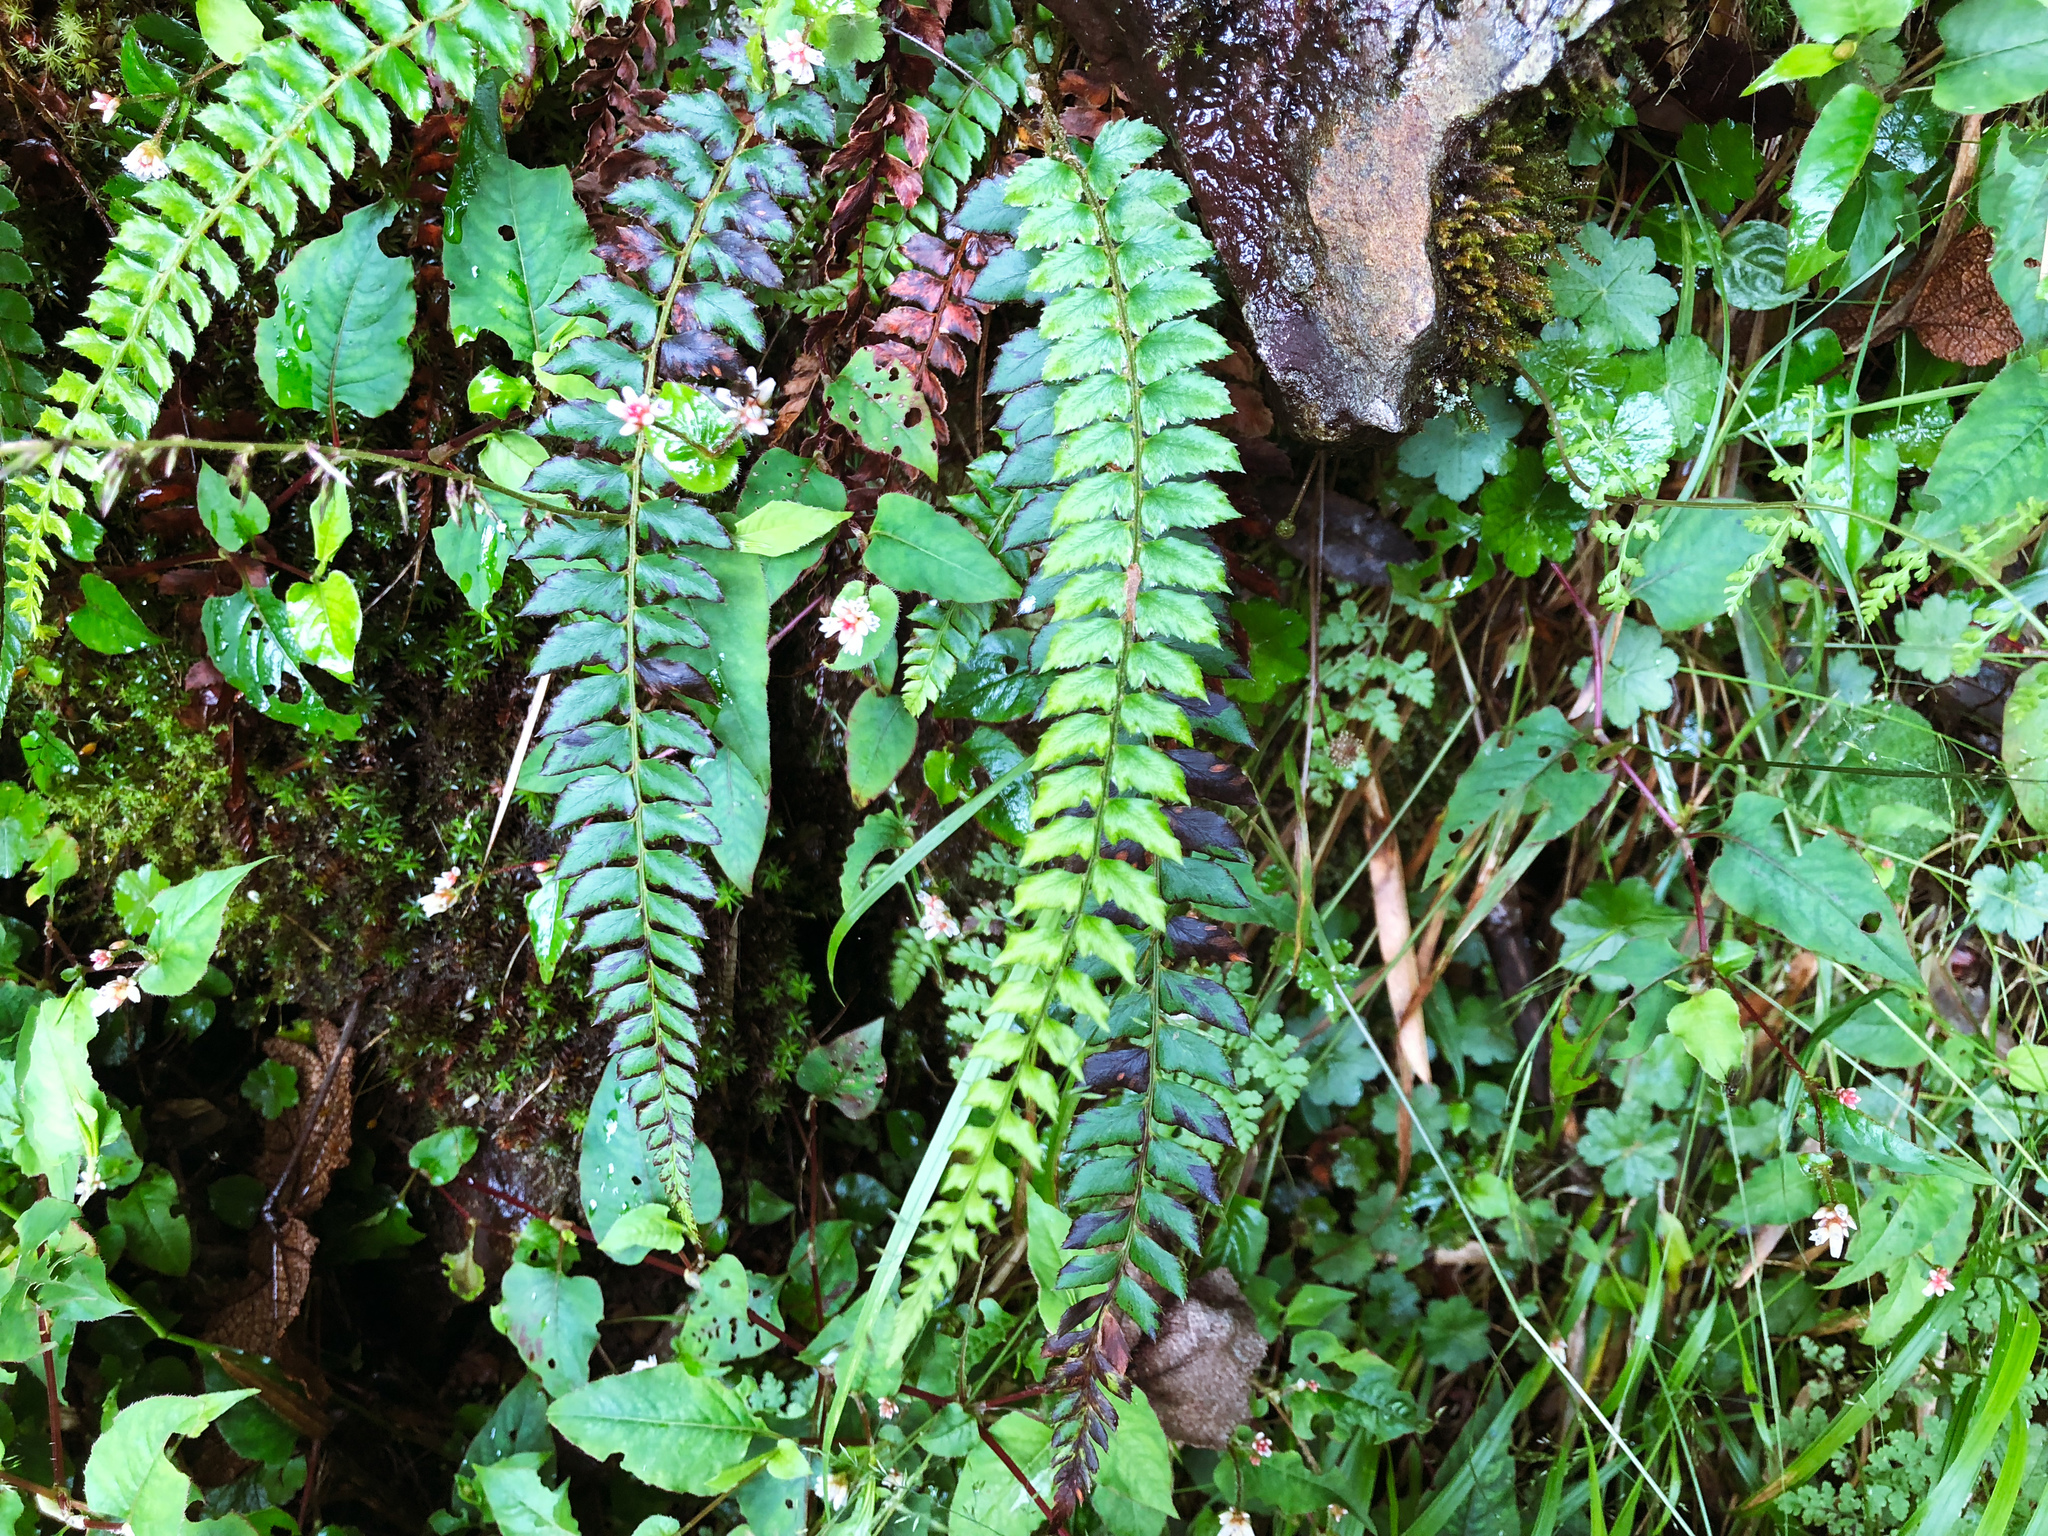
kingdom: Plantae
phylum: Tracheophyta
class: Polypodiopsida
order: Polypodiales
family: Dryopteridaceae
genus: Polystichum
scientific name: Polystichum nepalense
